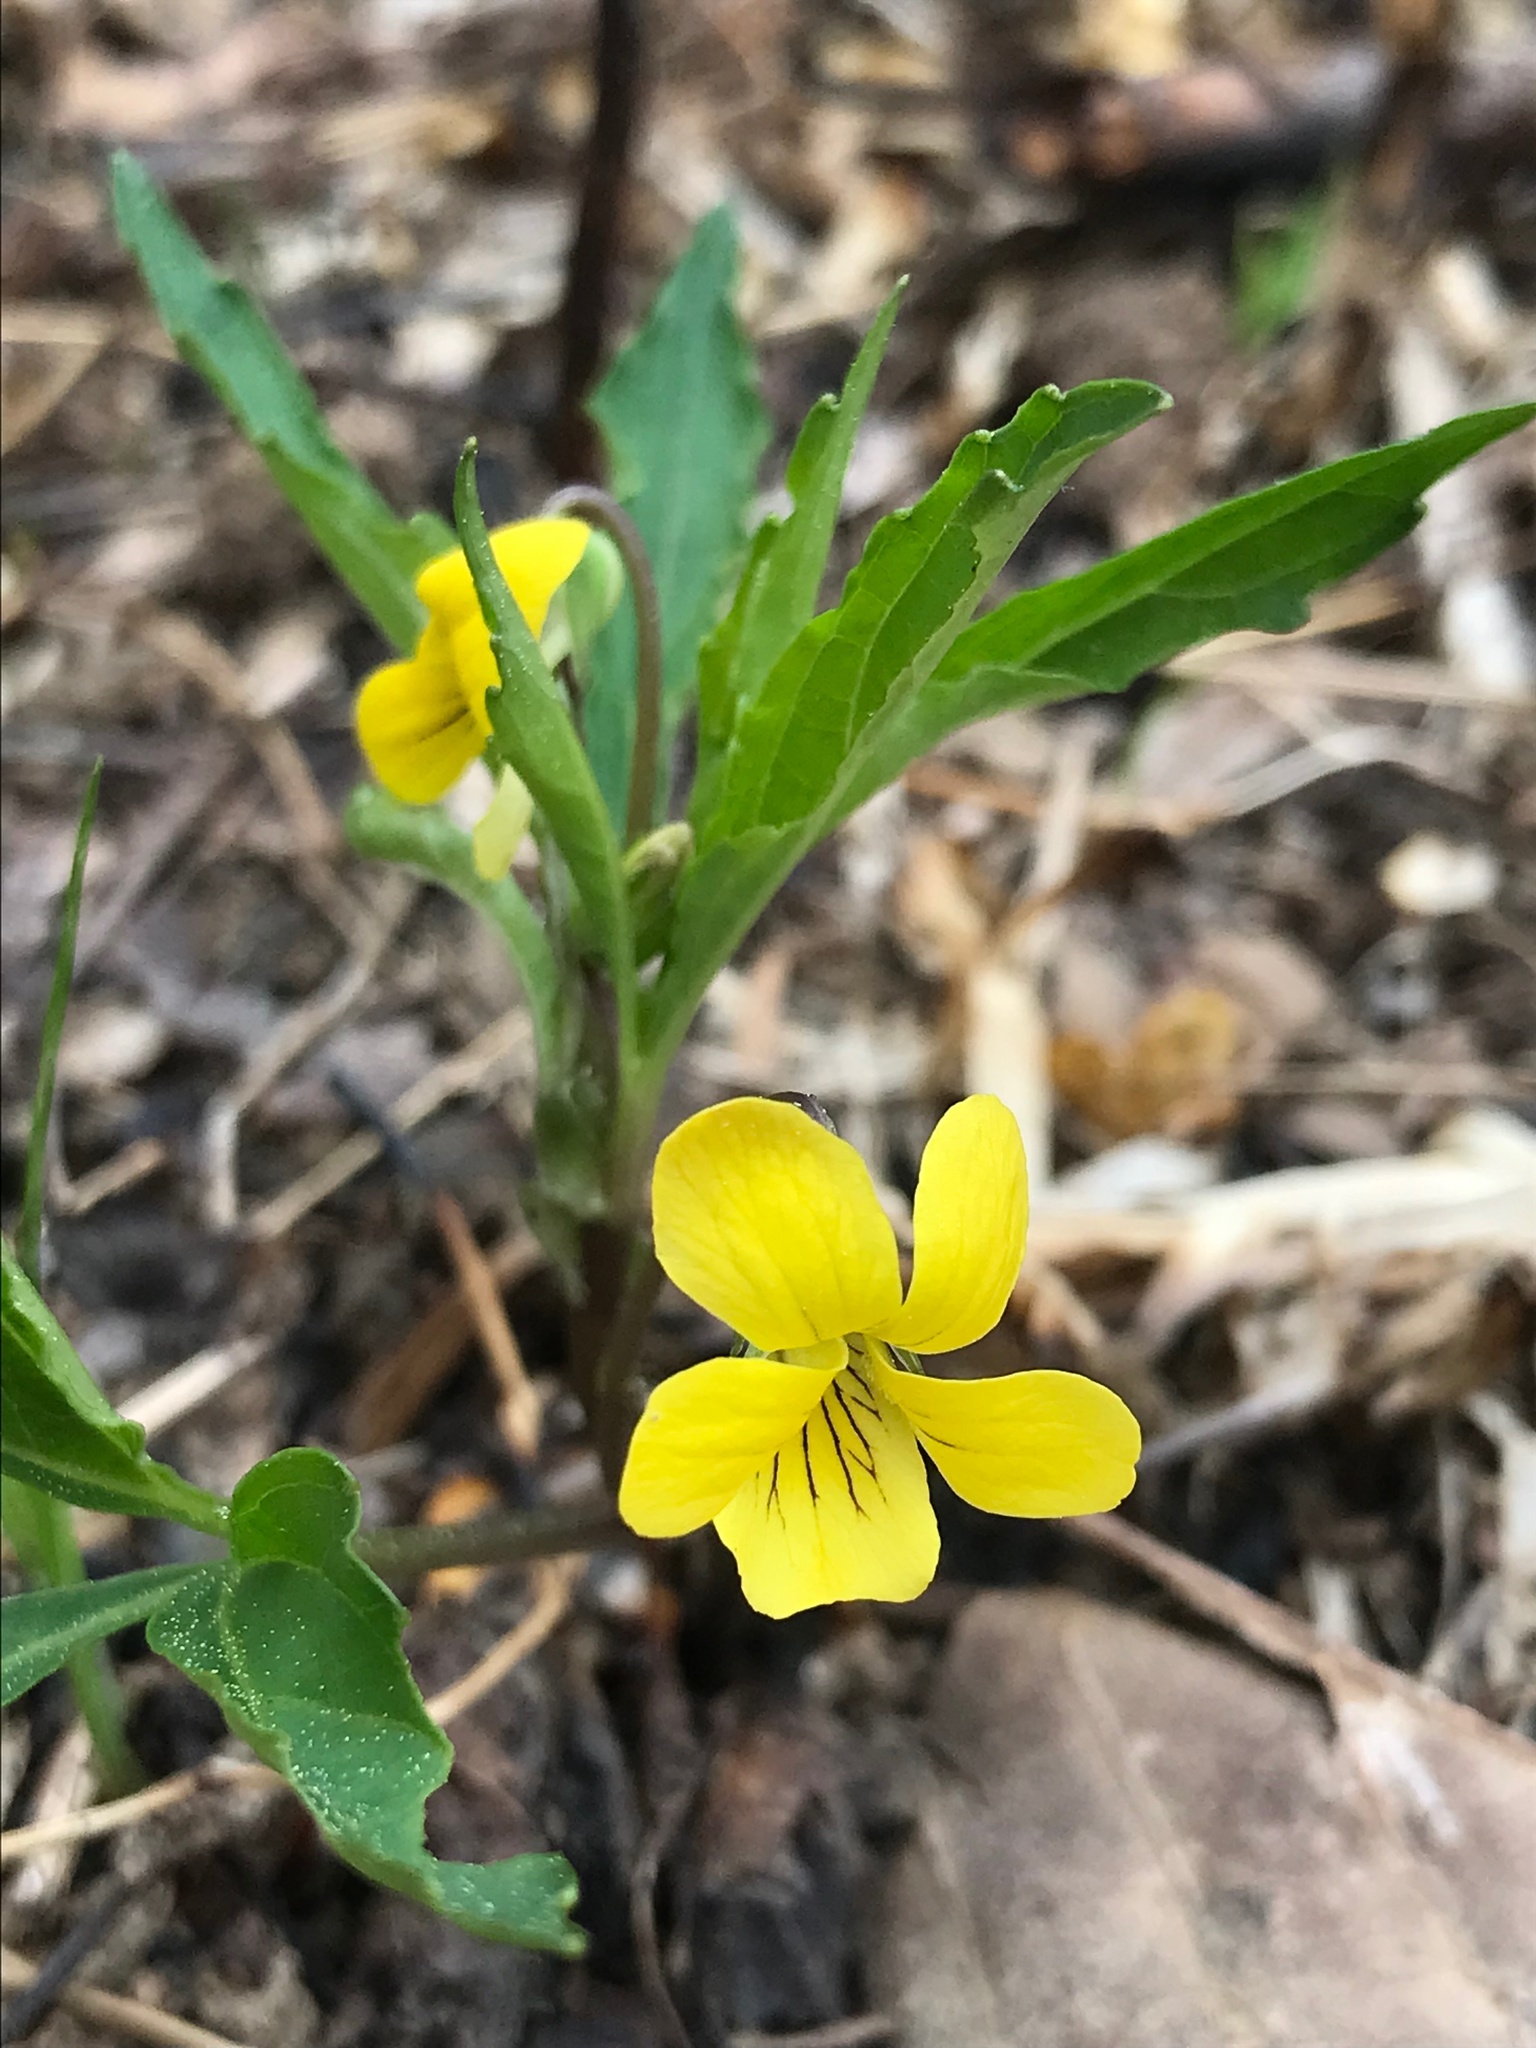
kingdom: Plantae
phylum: Tracheophyta
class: Magnoliopsida
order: Malpighiales
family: Violaceae
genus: Viola
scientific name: Viola tripartita
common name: Three-part violet
